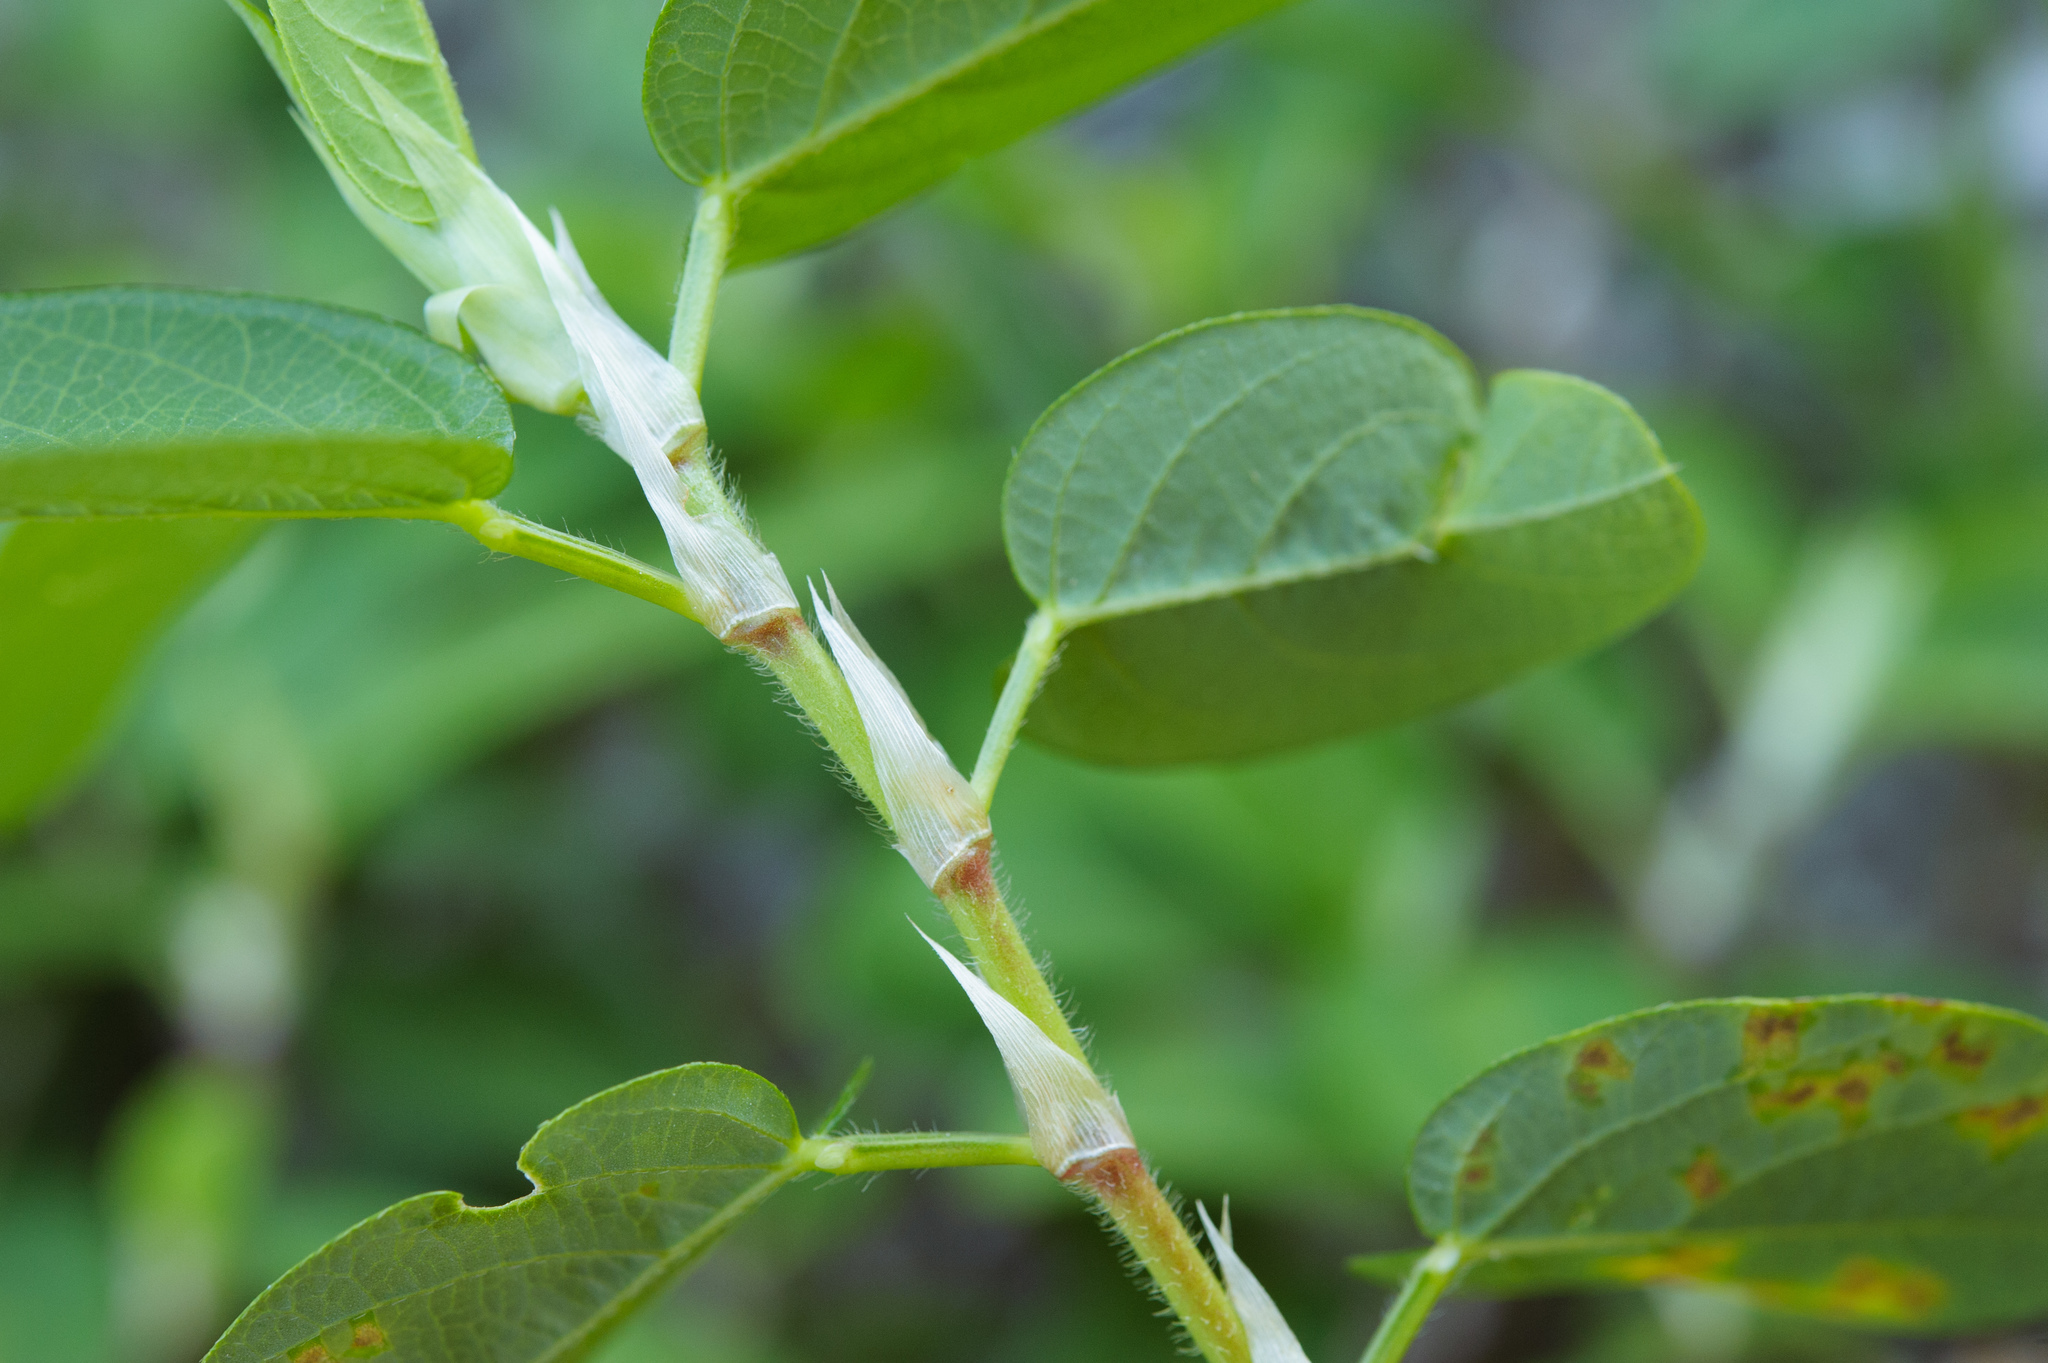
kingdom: Plantae
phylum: Tracheophyta
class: Magnoliopsida
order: Fabales
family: Fabaceae
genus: Alysicarpus
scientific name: Alysicarpus vaginalis
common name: White moneywort
